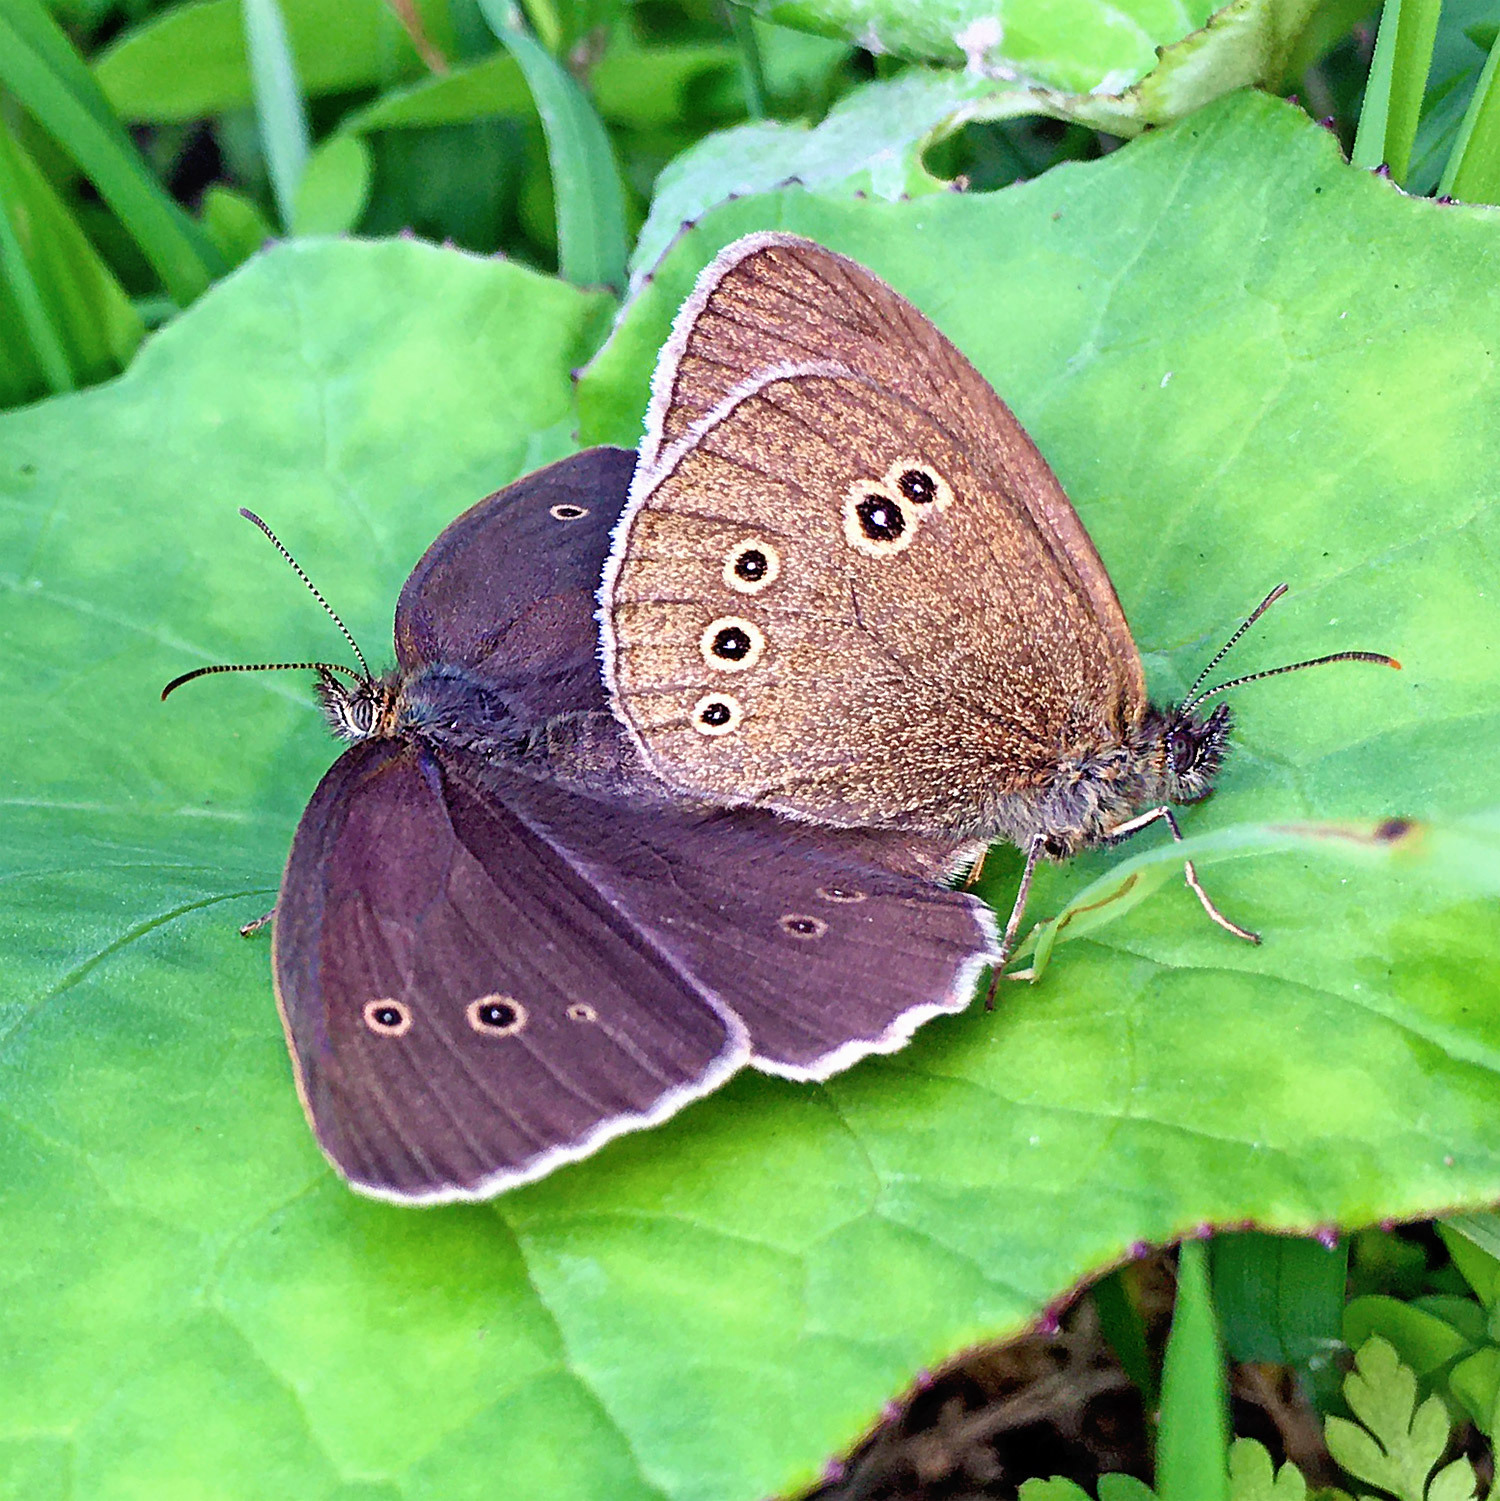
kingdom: Animalia
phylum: Arthropoda
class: Insecta
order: Lepidoptera
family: Nymphalidae
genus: Aphantopus
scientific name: Aphantopus hyperantus
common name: Ringlet
